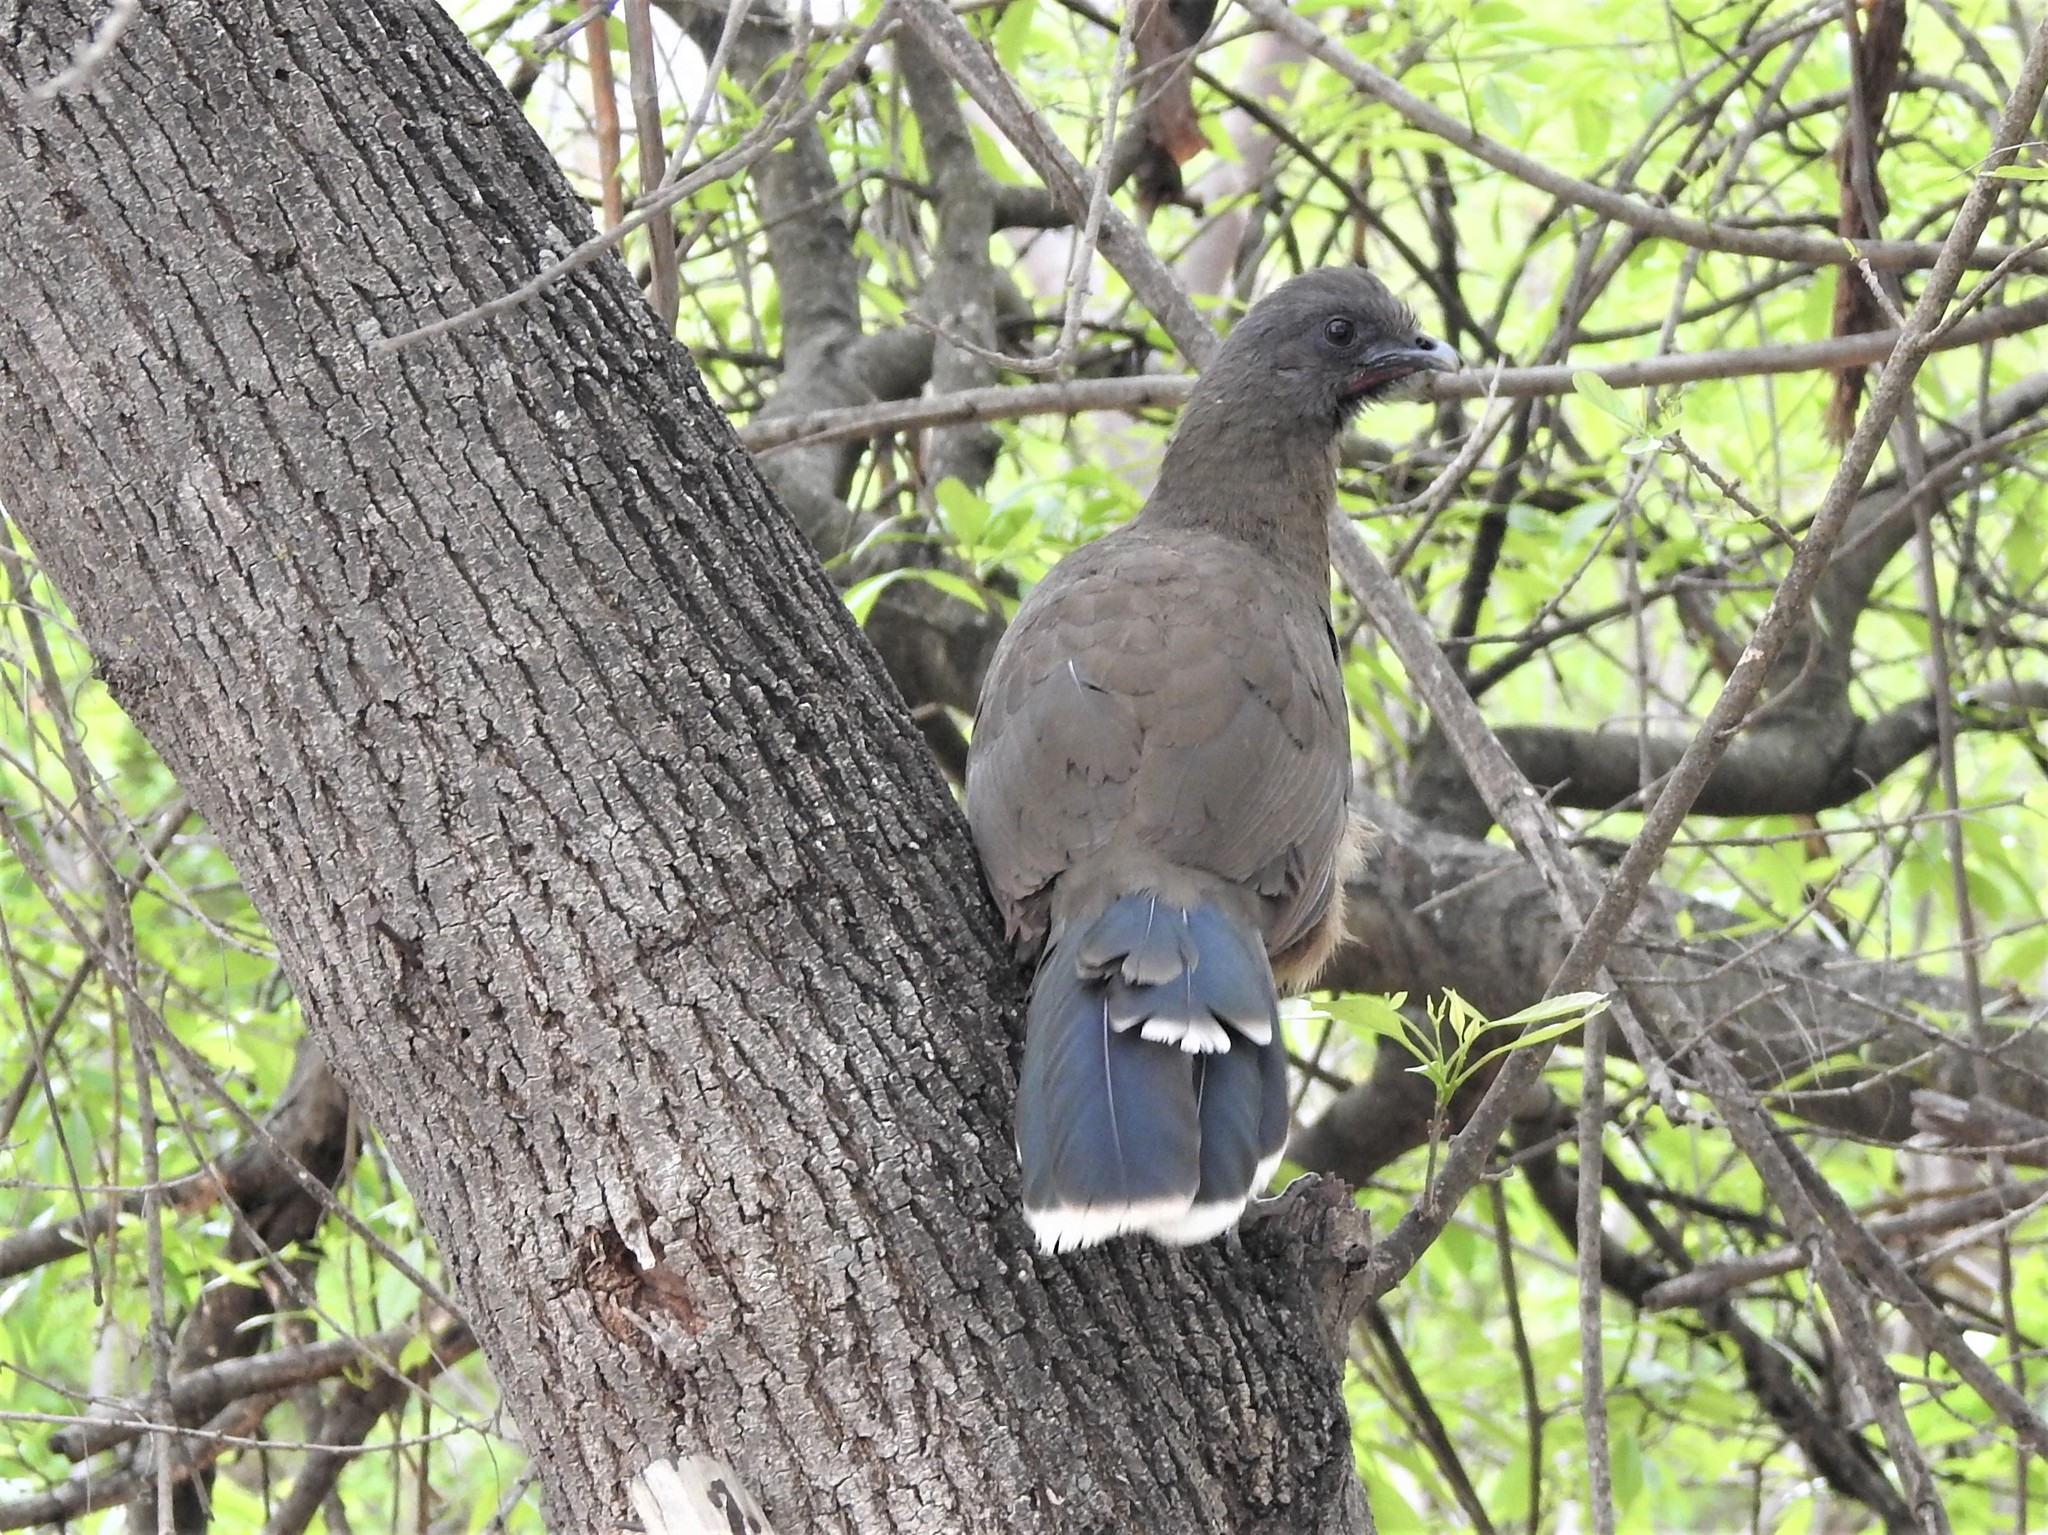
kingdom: Animalia
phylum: Chordata
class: Aves
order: Galliformes
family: Cracidae
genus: Ortalis
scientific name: Ortalis vetula
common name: Plain chachalaca
